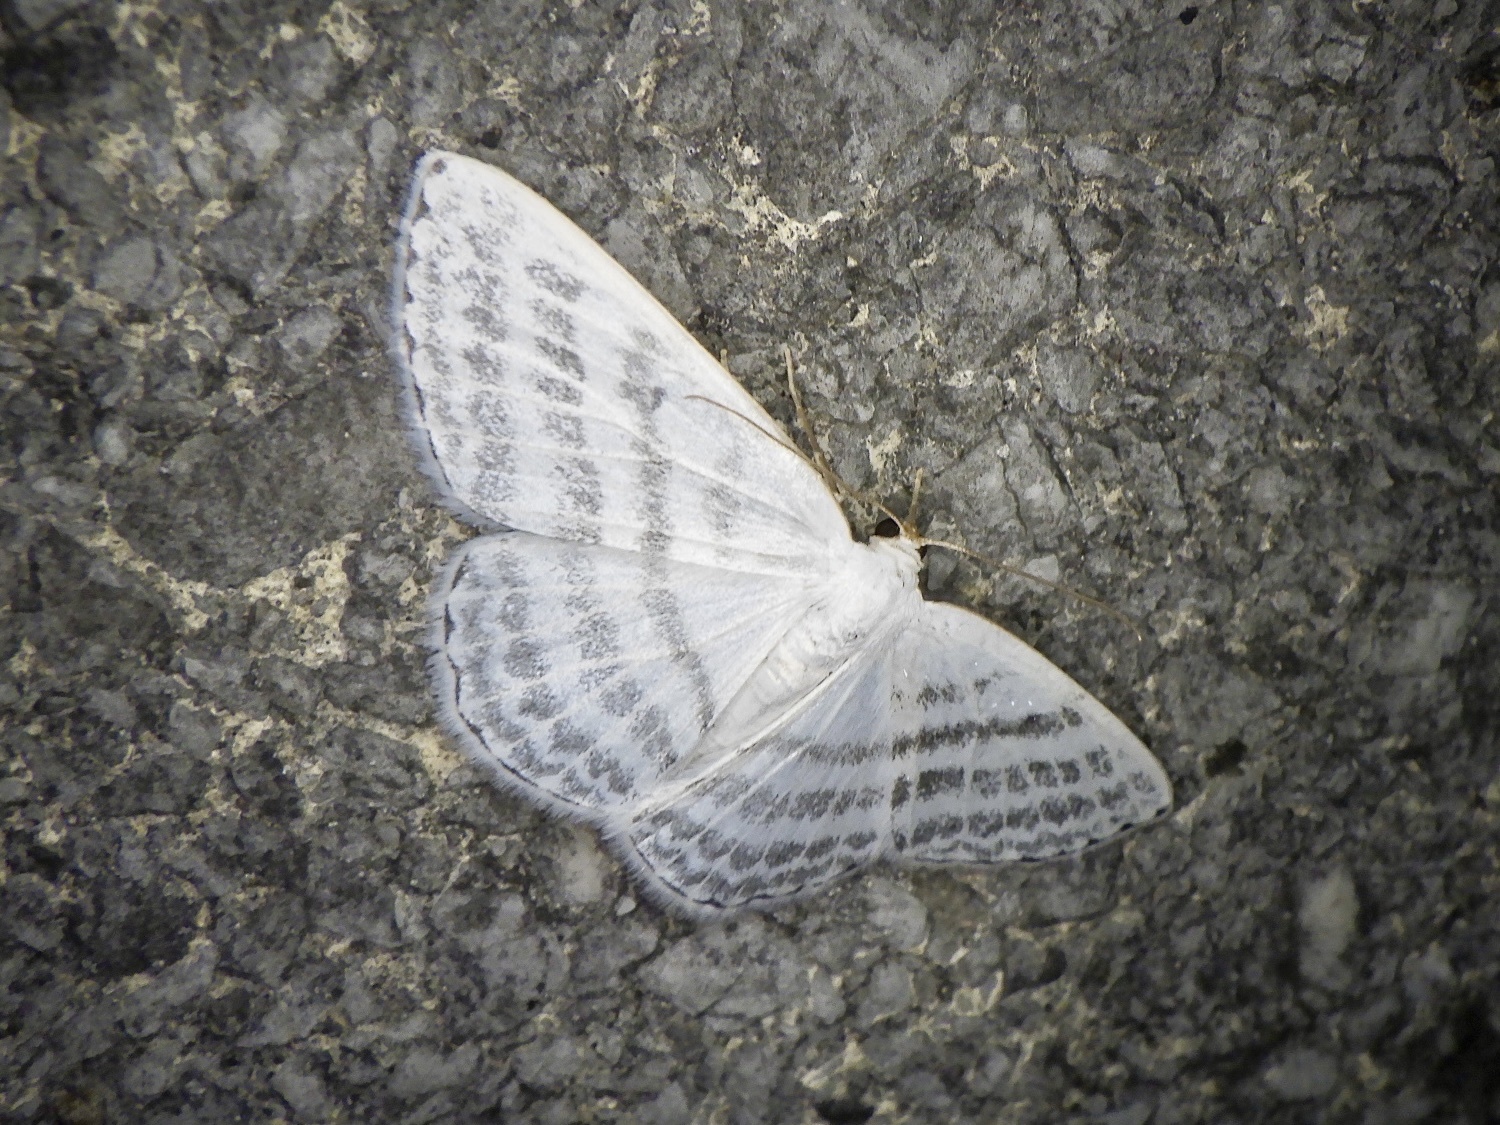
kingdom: Animalia
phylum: Arthropoda
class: Insecta
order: Lepidoptera
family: Geometridae
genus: Taeniophila
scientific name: Taeniophila unio
